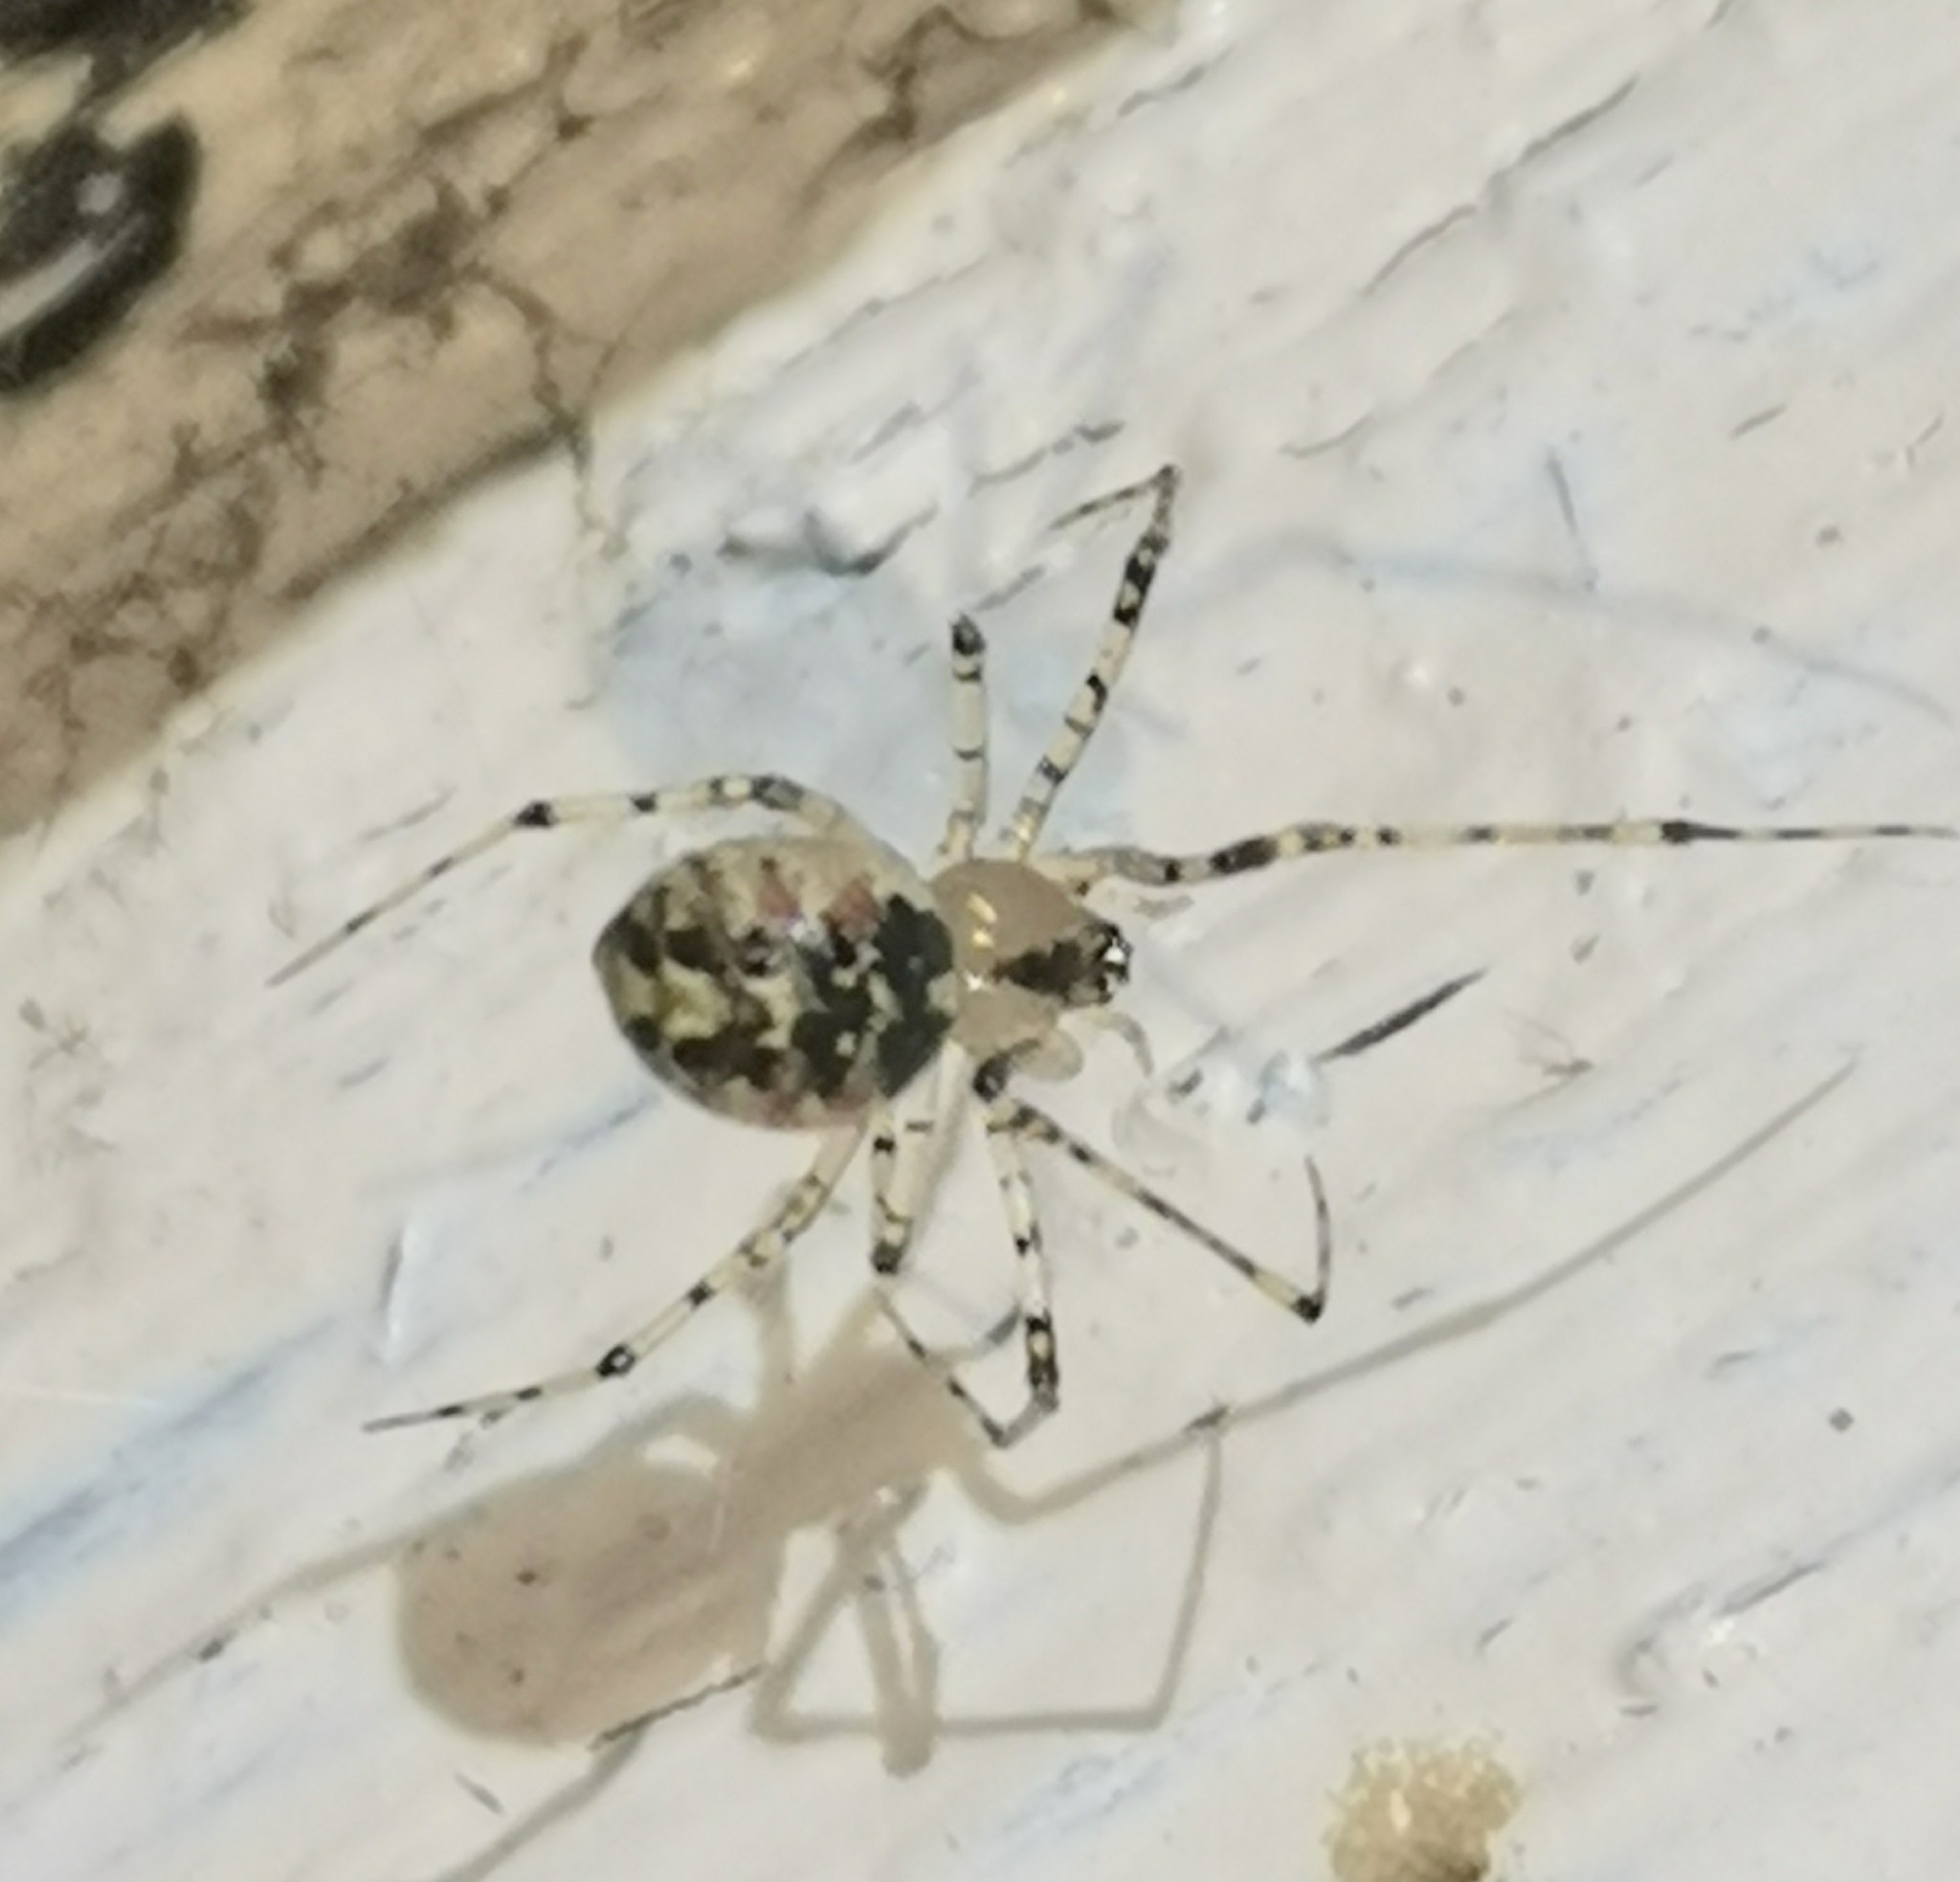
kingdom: Animalia
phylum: Arthropoda
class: Arachnida
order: Araneae
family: Theridiidae
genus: Platnickina
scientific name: Platnickina tincta
